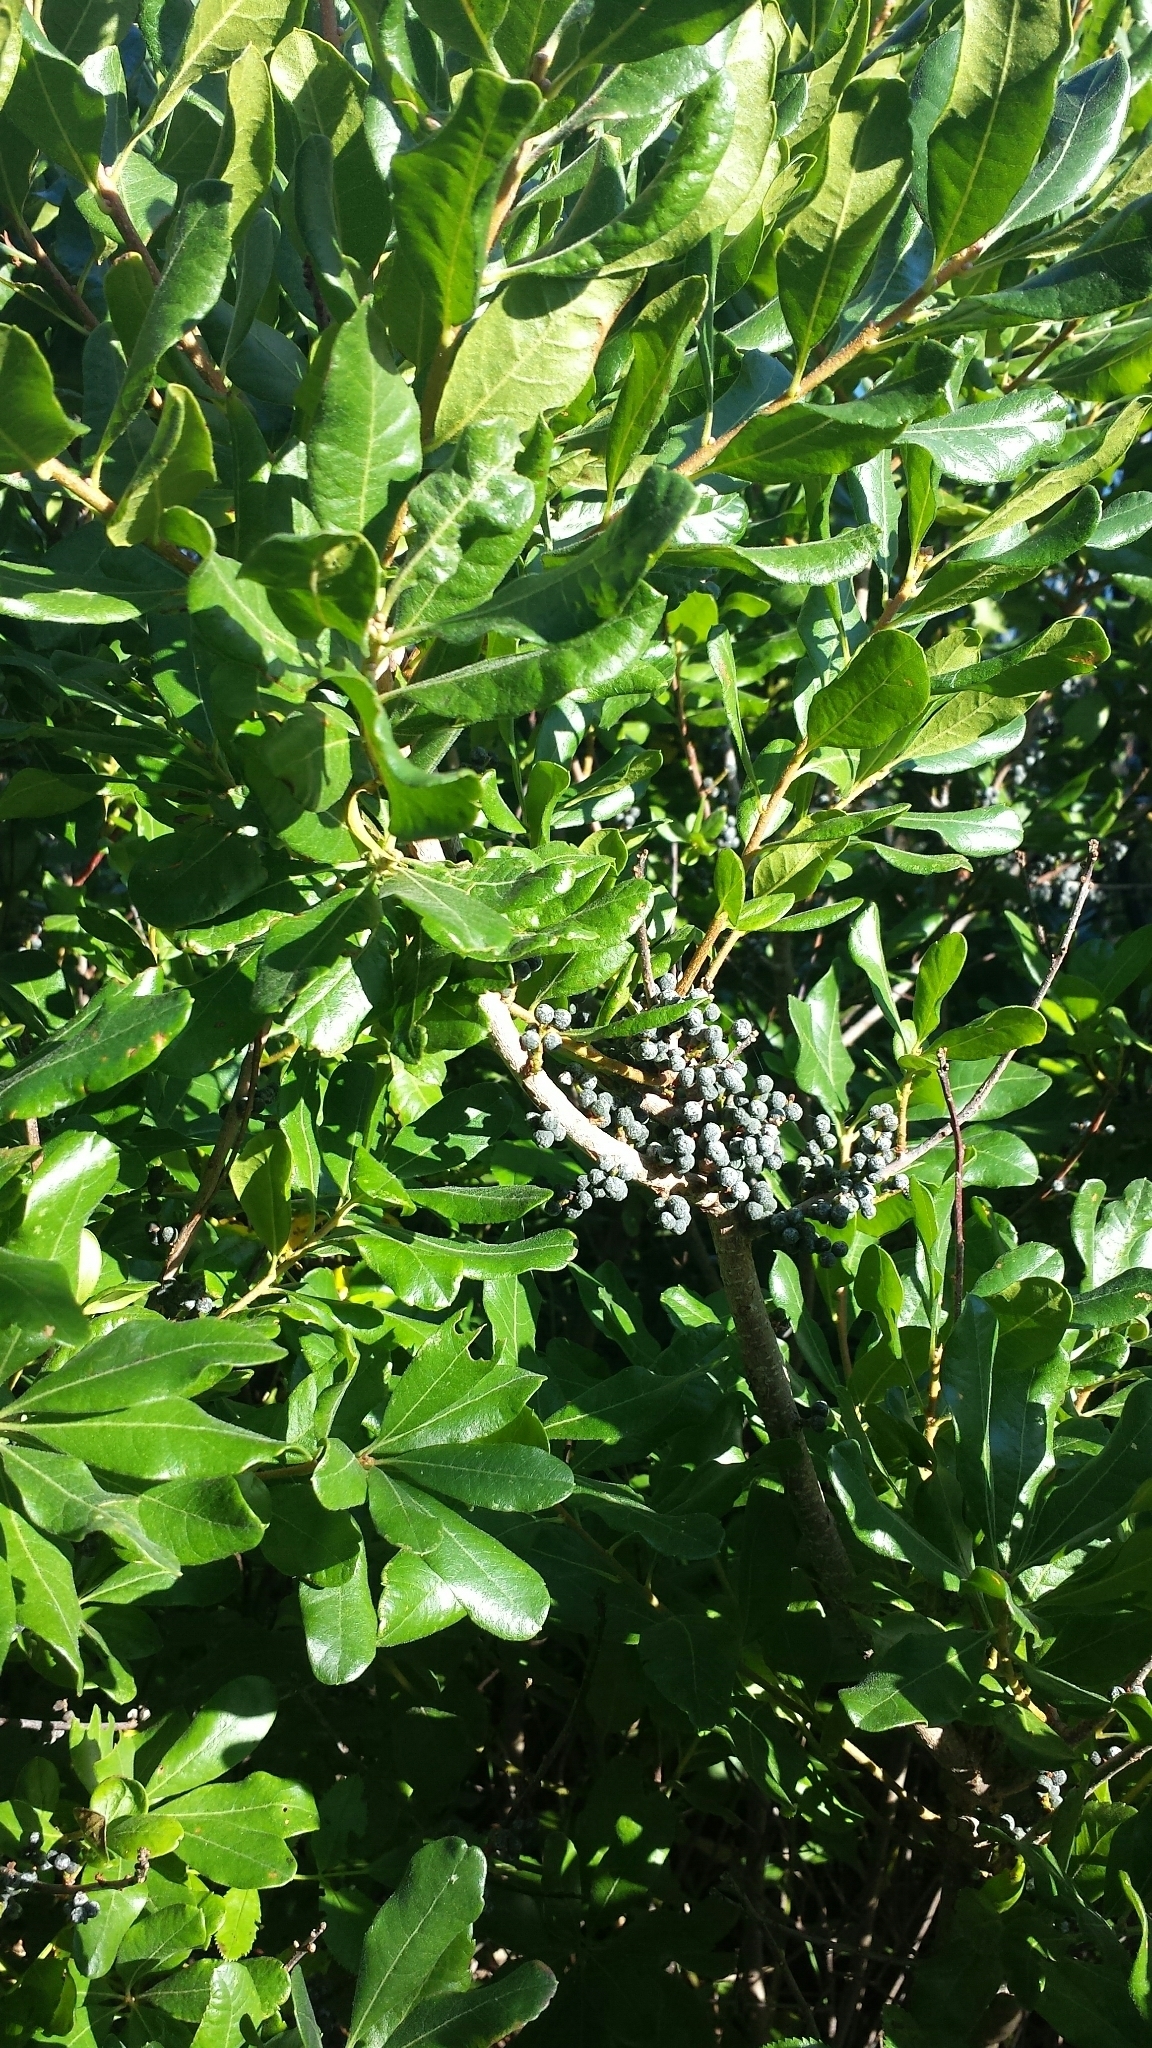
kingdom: Plantae
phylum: Tracheophyta
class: Magnoliopsida
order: Fagales
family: Myricaceae
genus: Morella
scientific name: Morella pensylvanica
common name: Northern bayberry
